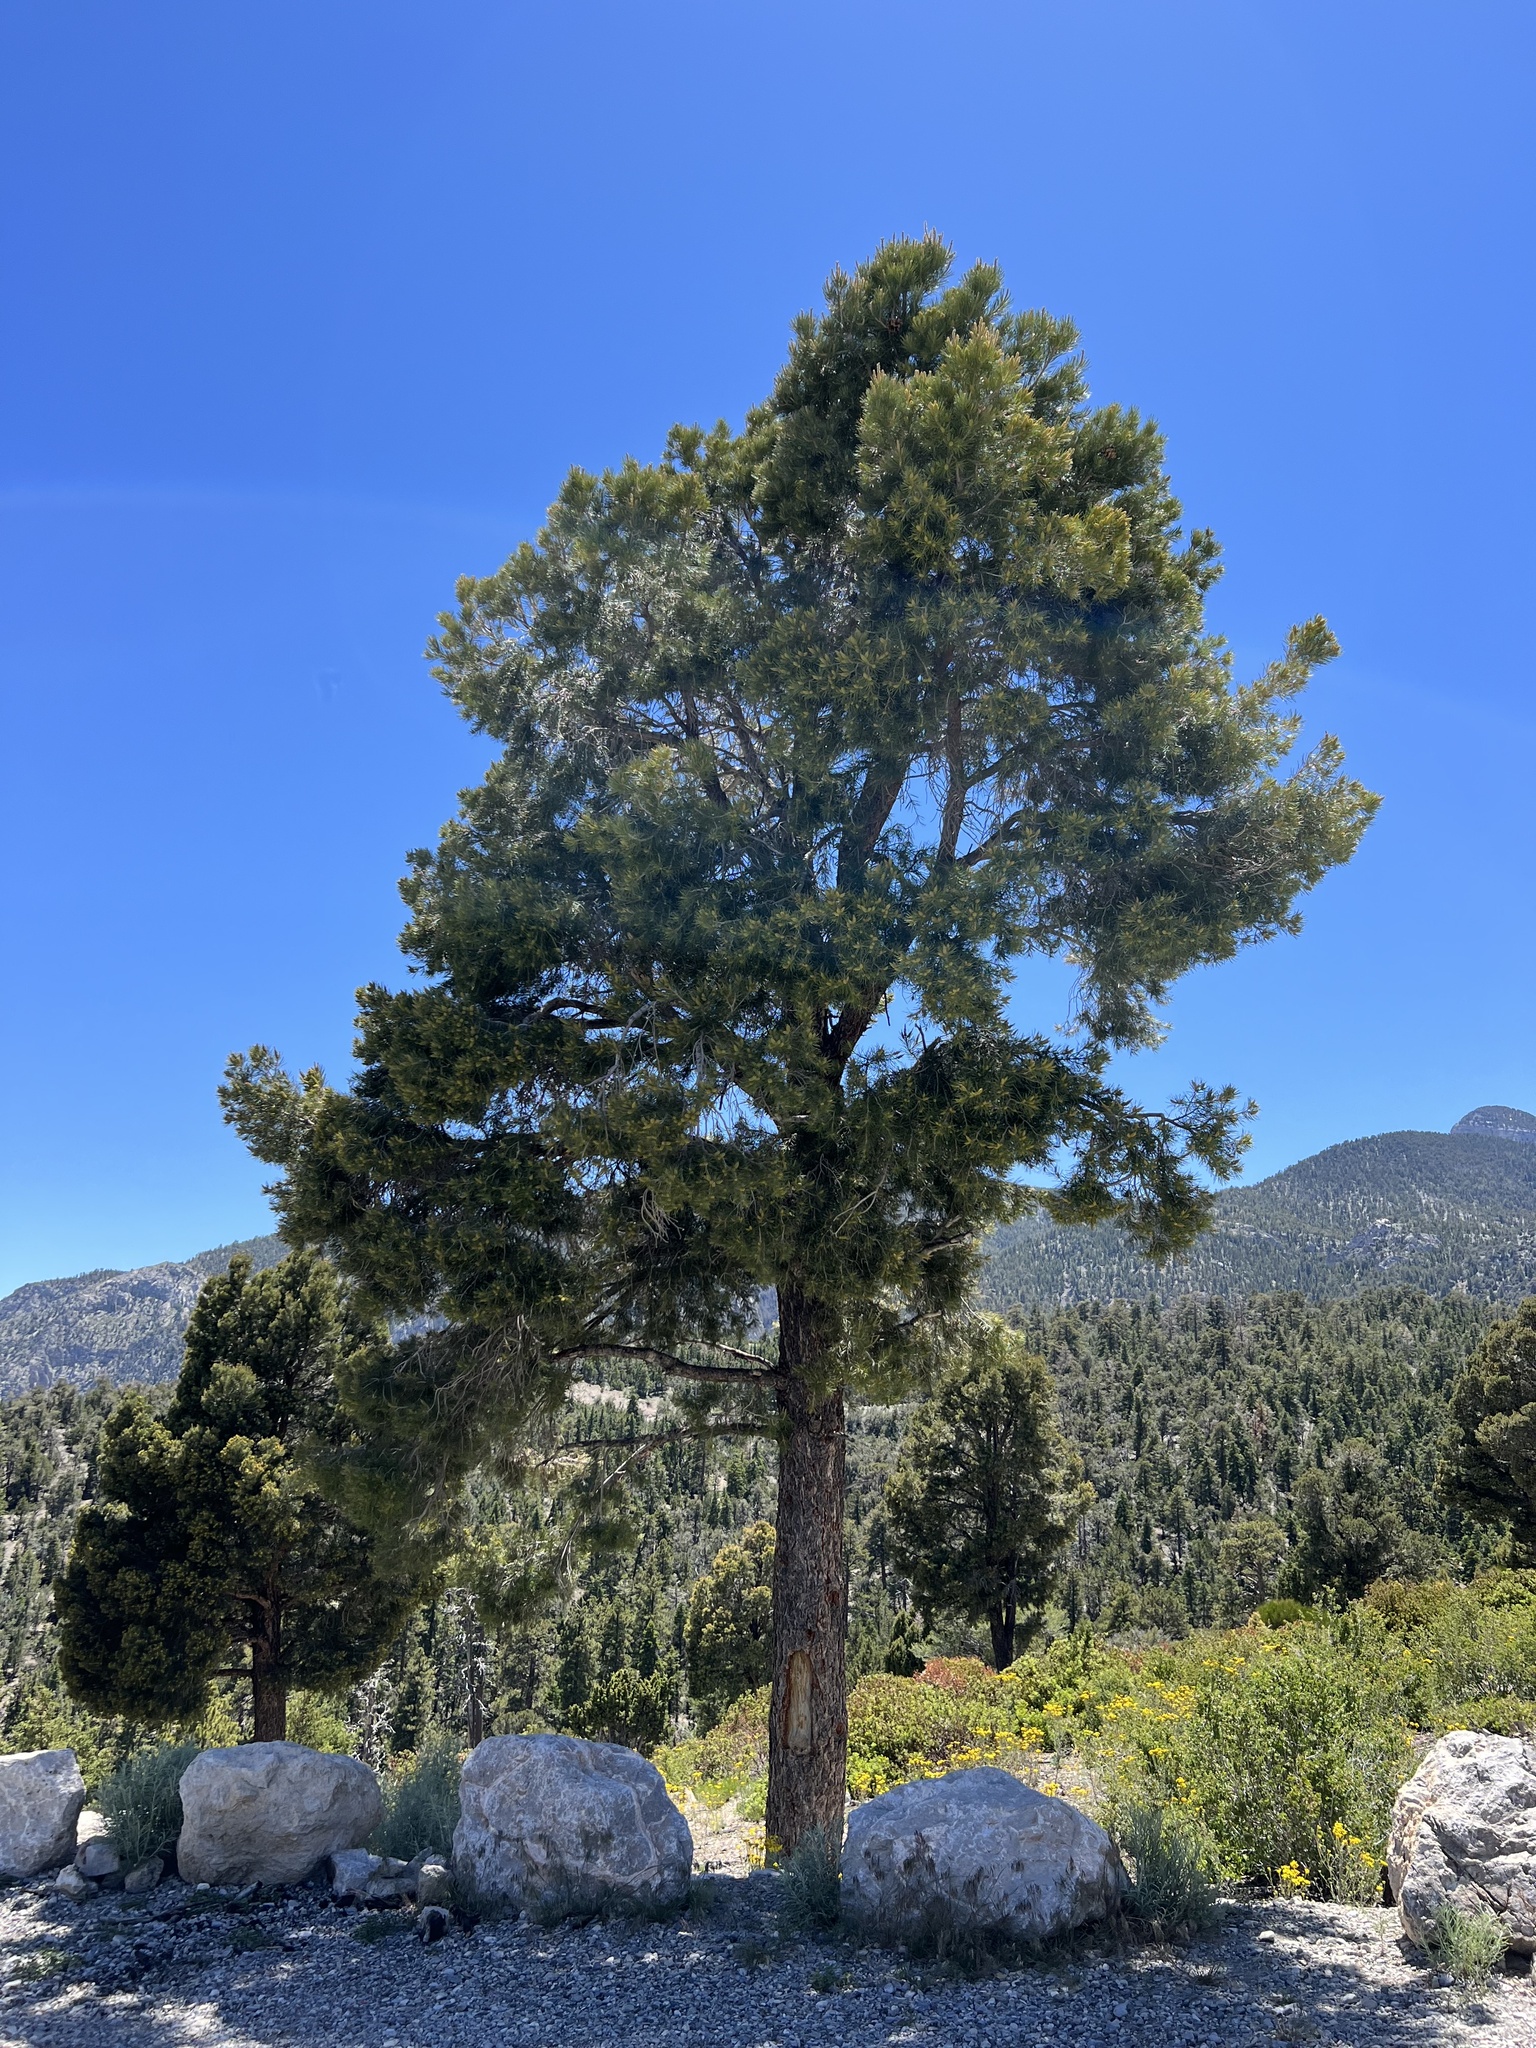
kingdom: Plantae
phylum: Tracheophyta
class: Pinopsida
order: Pinales
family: Pinaceae
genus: Pinus
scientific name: Pinus monophylla
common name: One-leaved nut pine
